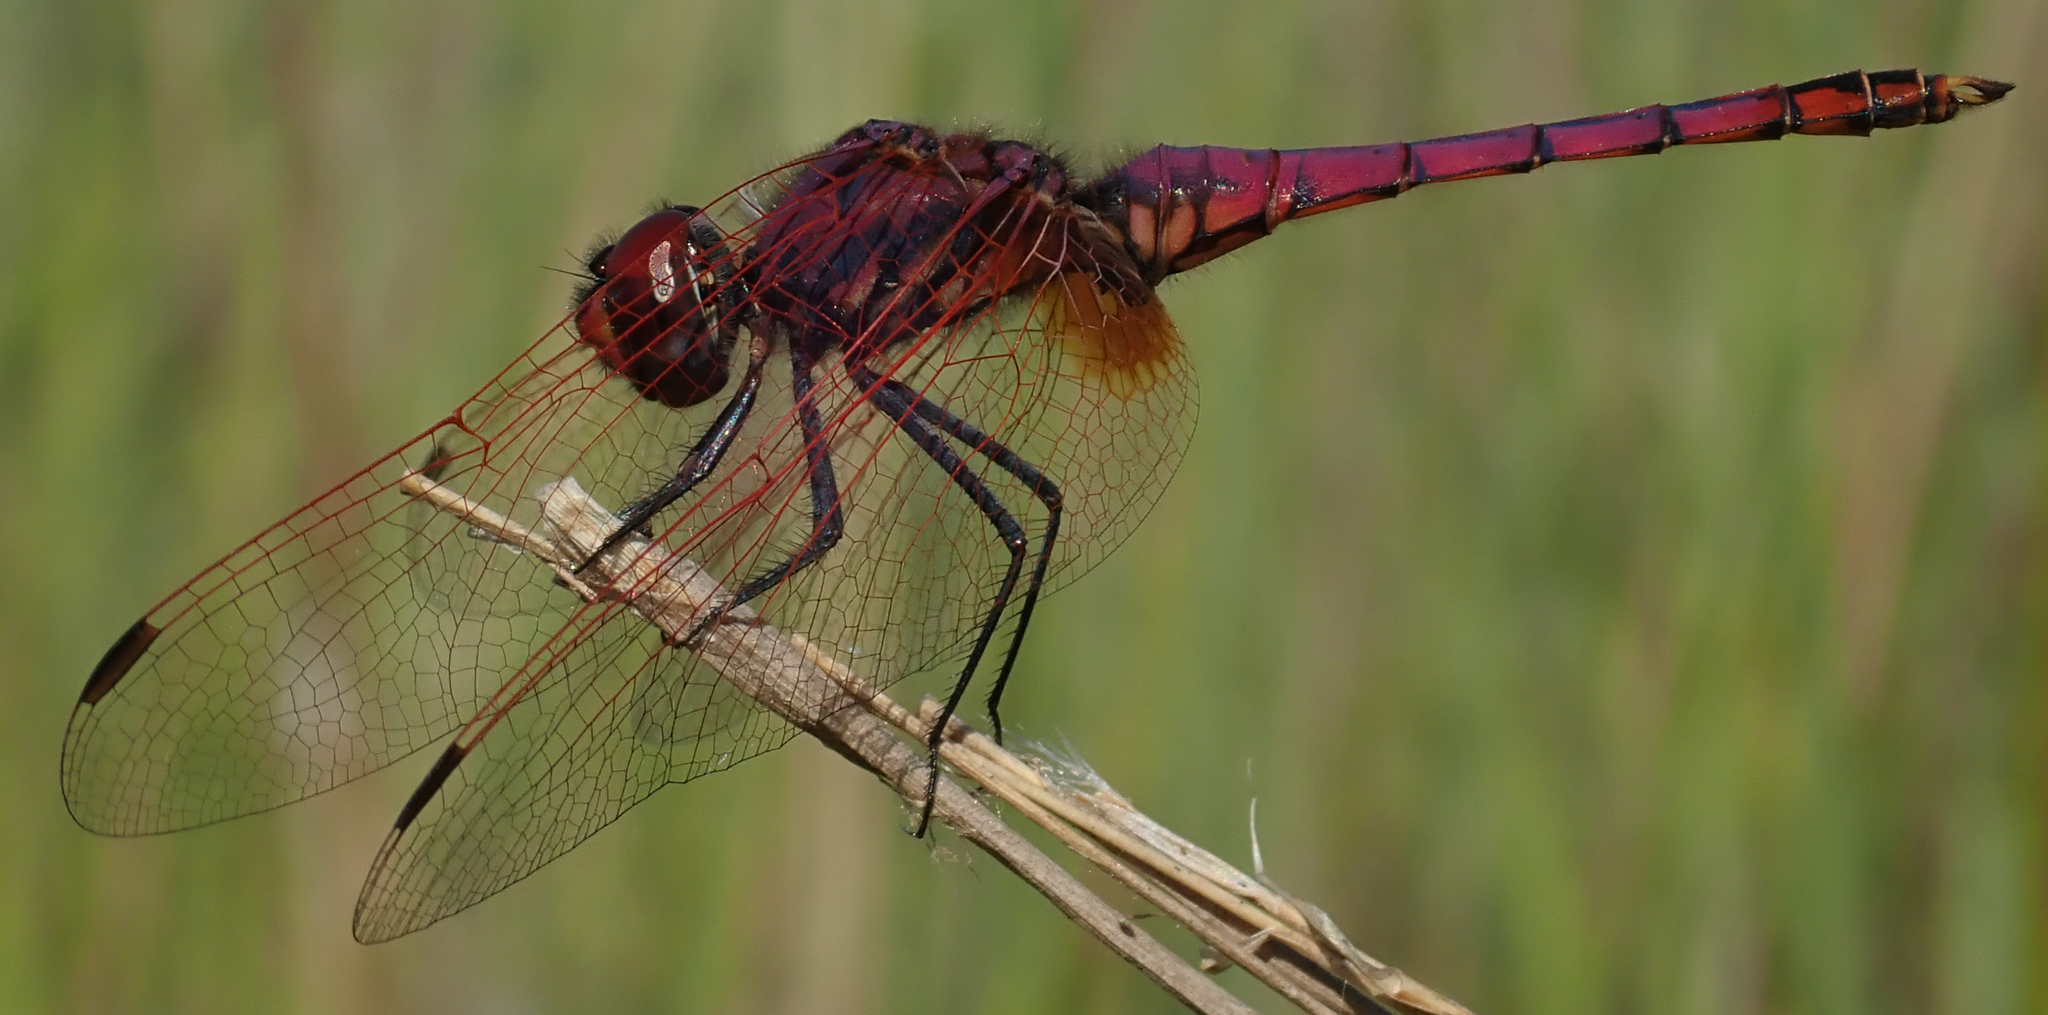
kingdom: Animalia
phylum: Arthropoda
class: Insecta
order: Odonata
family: Libellulidae
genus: Trithemis
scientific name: Trithemis annulata
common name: Violet dropwing
